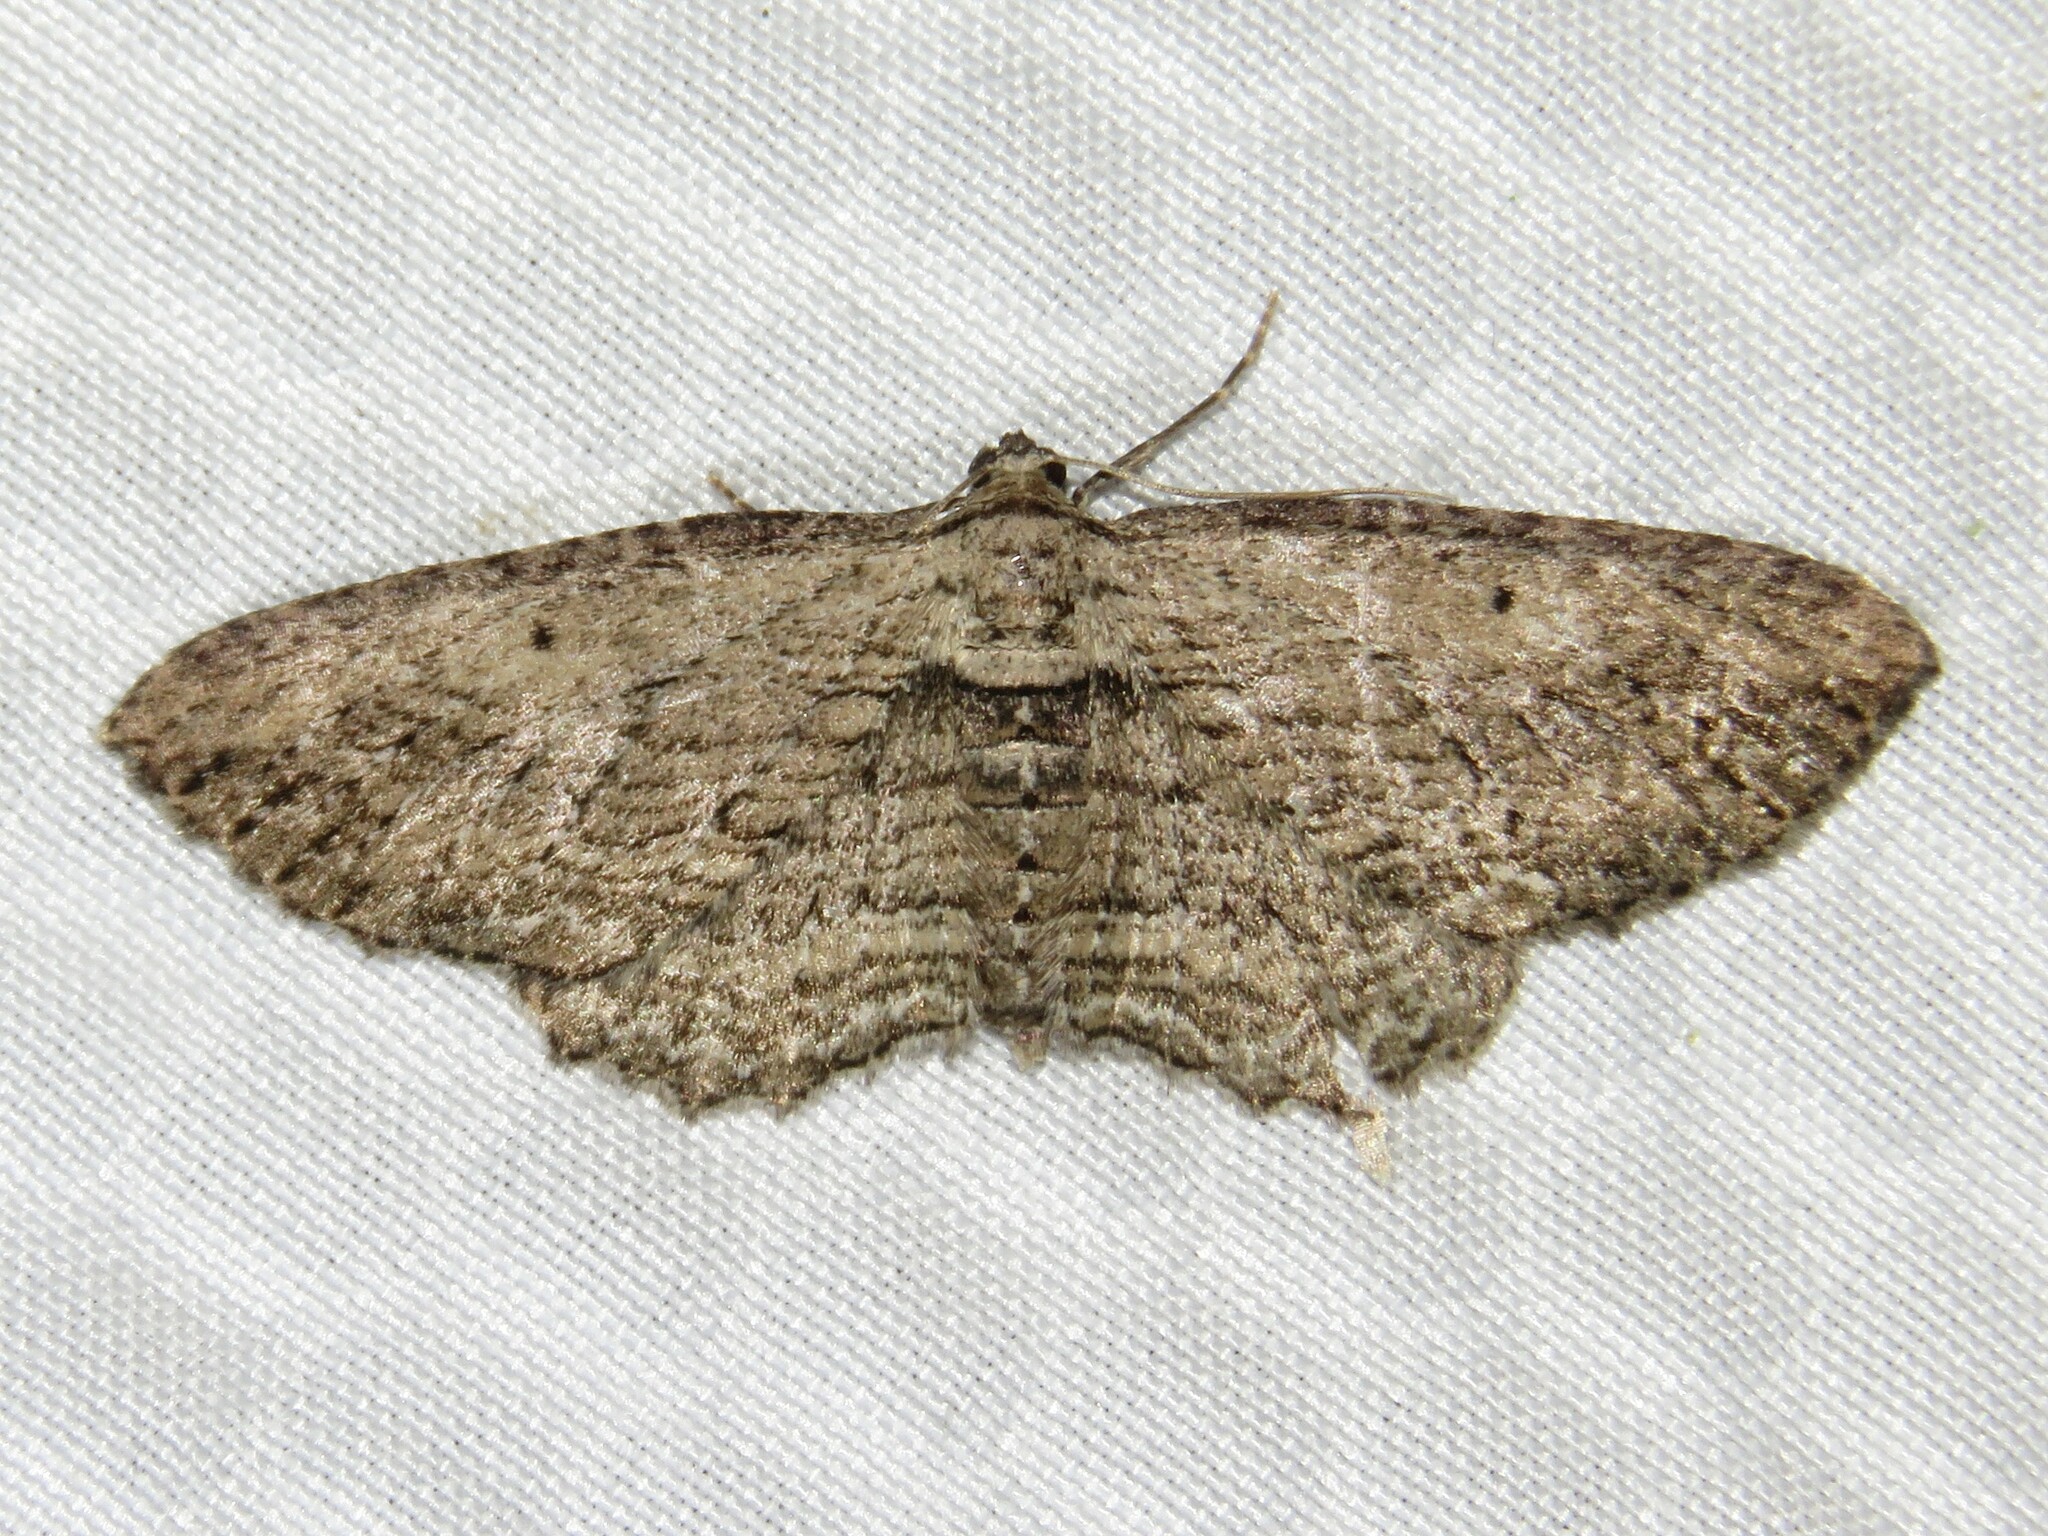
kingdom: Animalia
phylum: Arthropoda
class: Insecta
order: Lepidoptera
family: Geometridae
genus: Horisme
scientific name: Horisme intestinata
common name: Brown bark carpet
